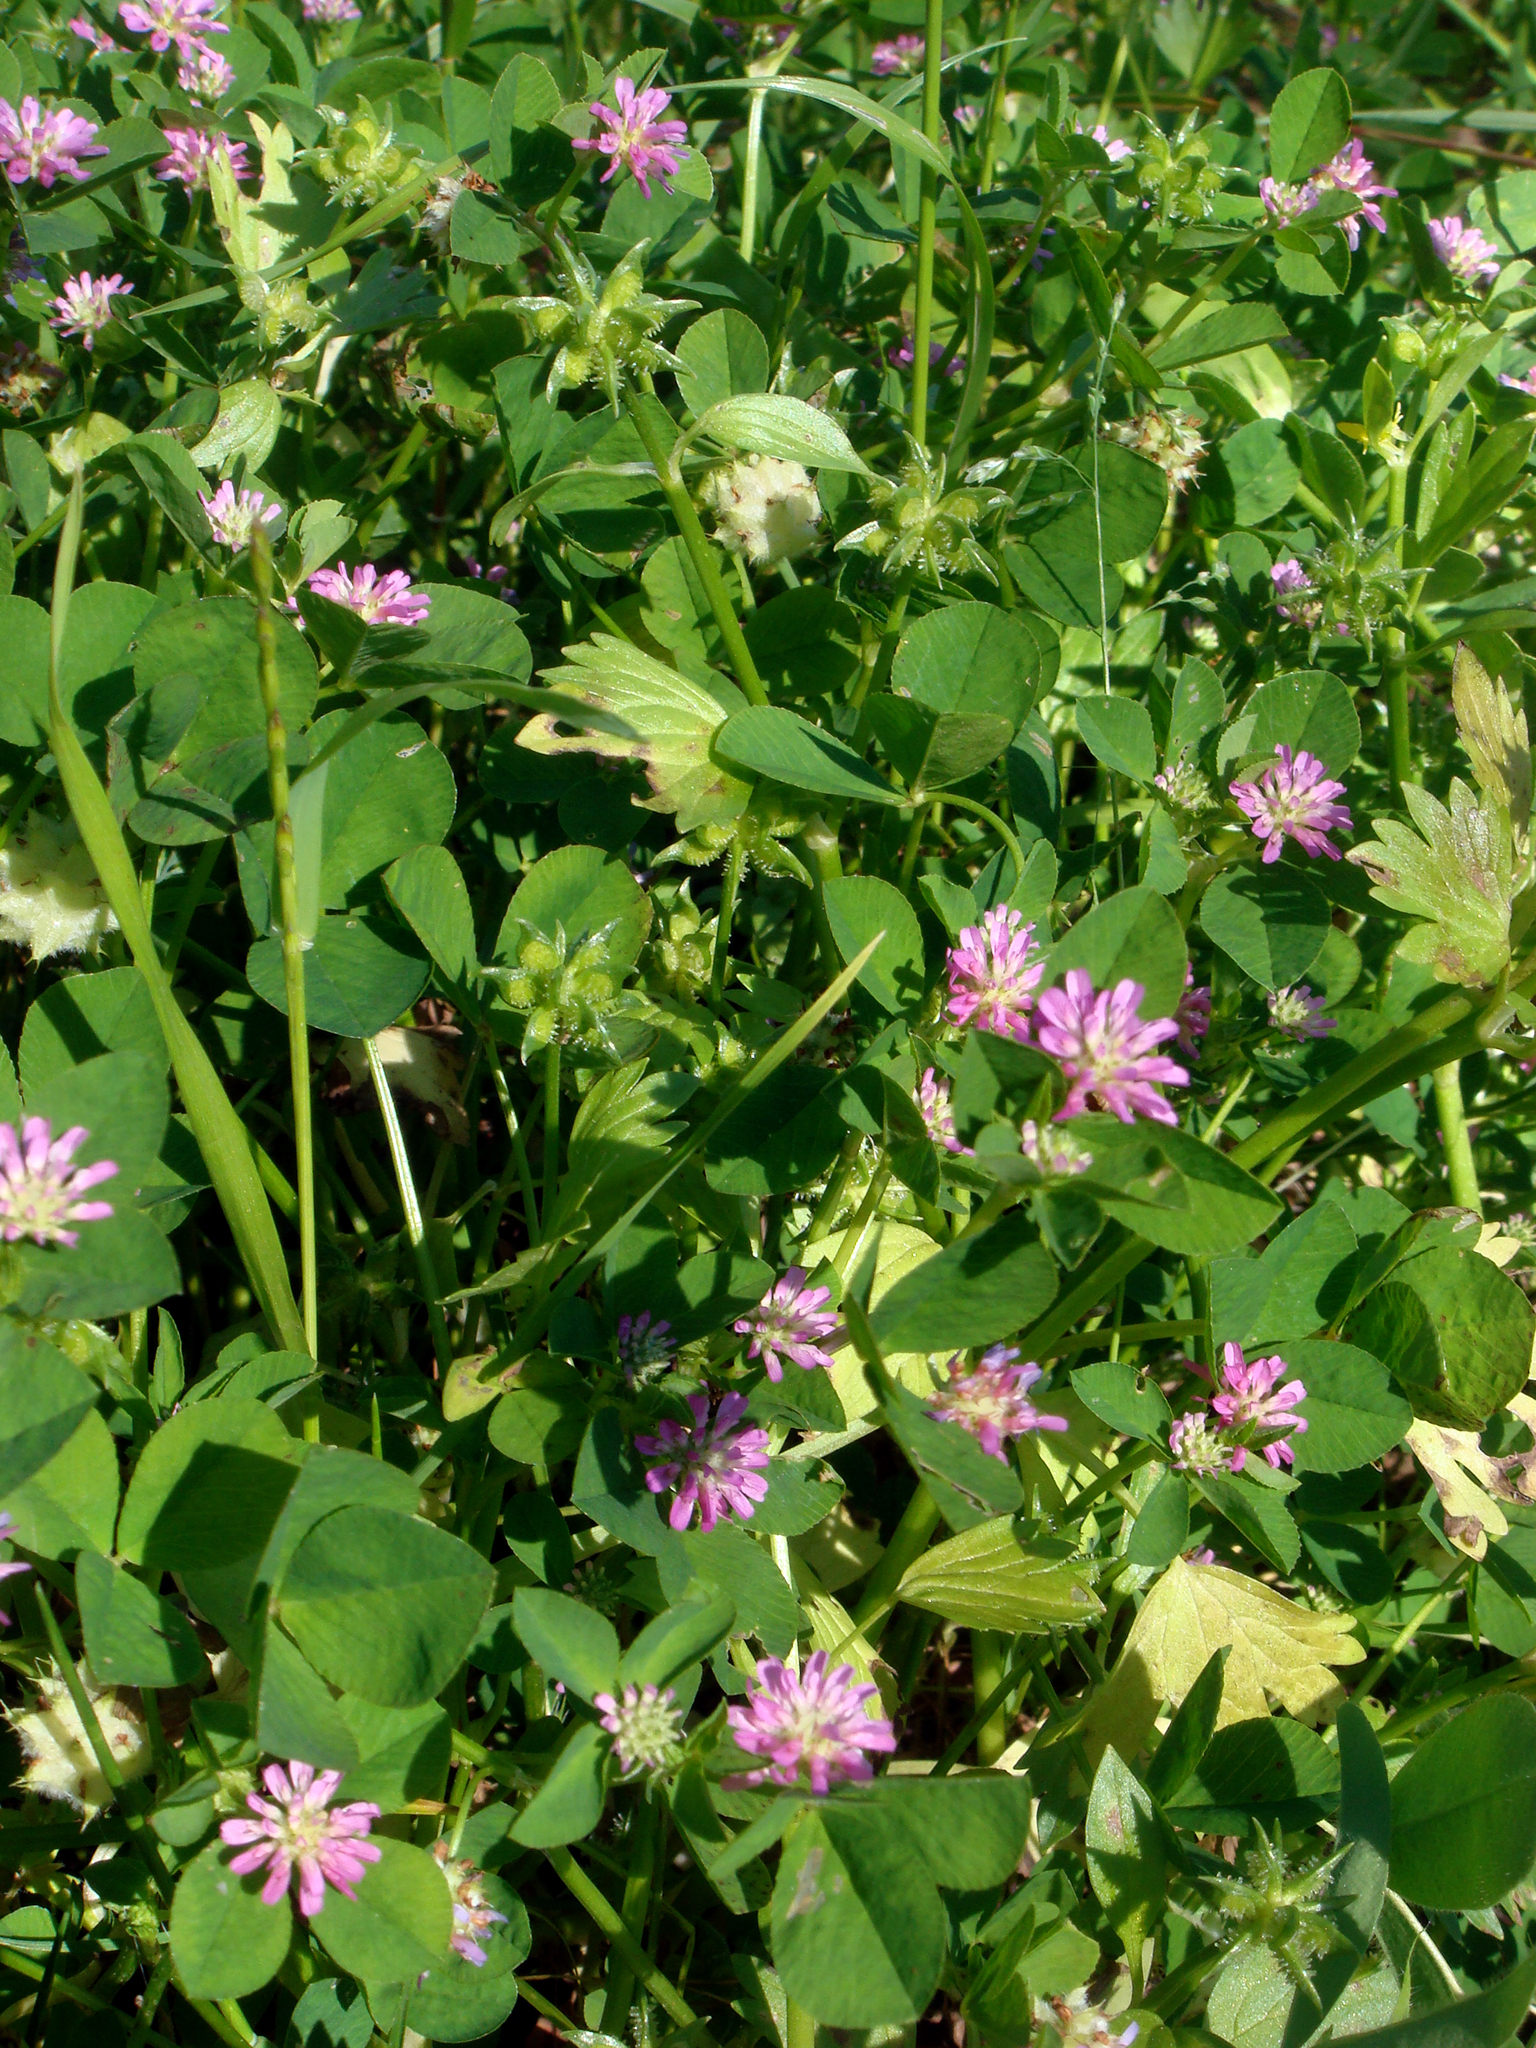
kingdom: Plantae
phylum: Tracheophyta
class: Magnoliopsida
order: Fabales
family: Fabaceae
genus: Trifolium
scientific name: Trifolium resupinatum
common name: Reversed clover
